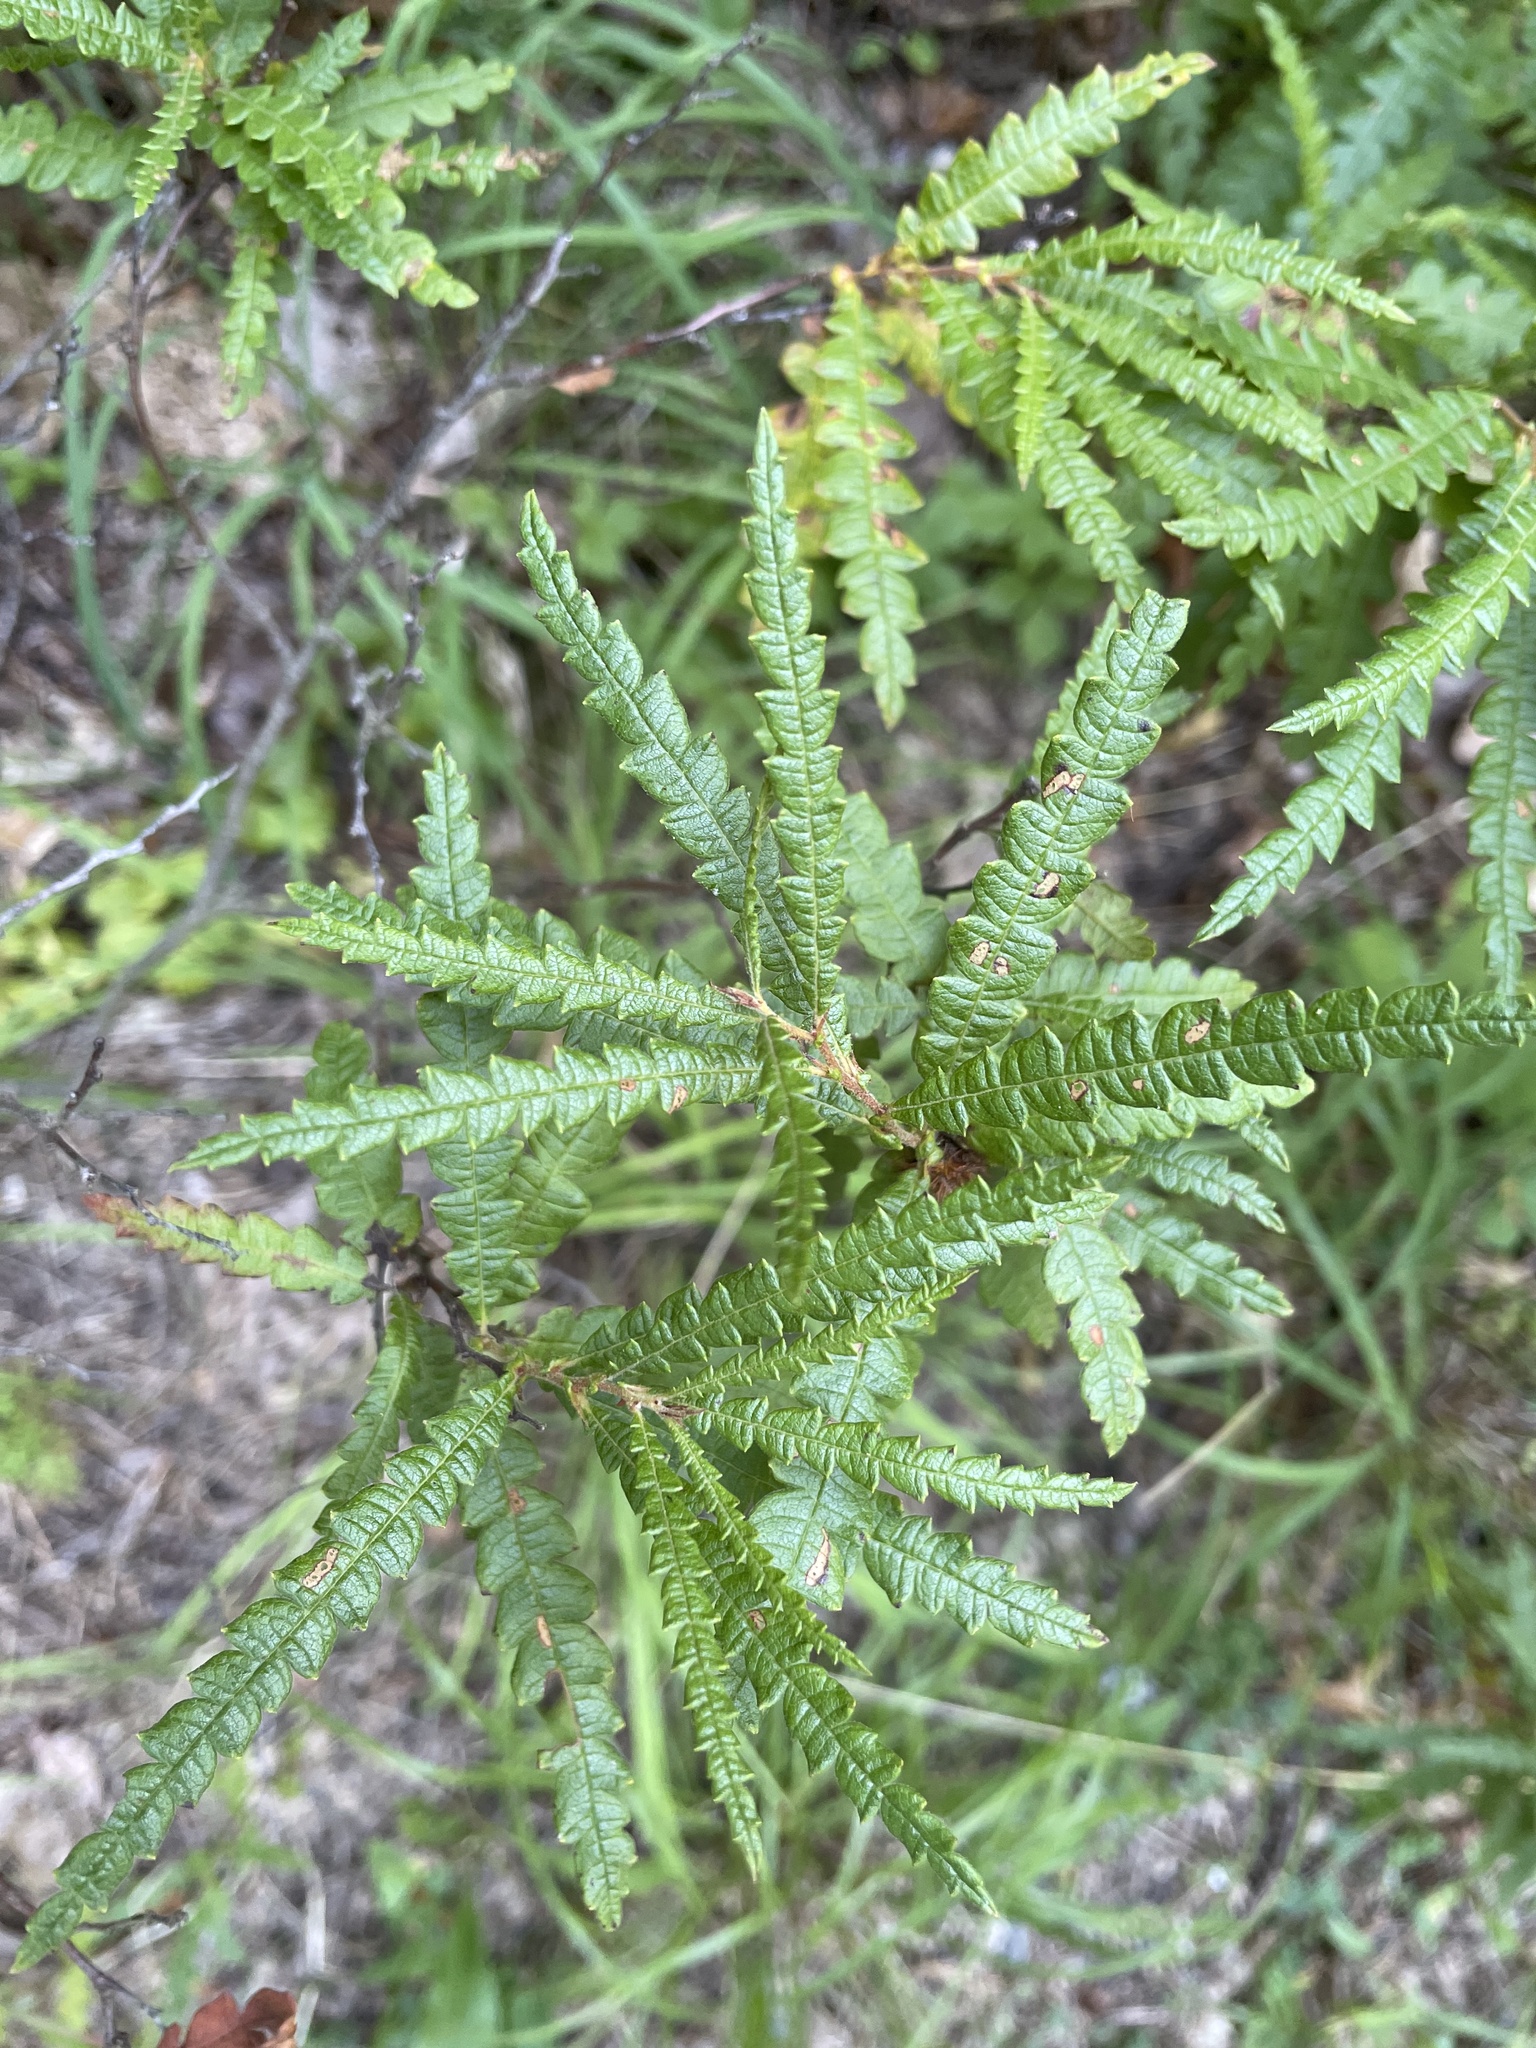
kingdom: Plantae
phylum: Tracheophyta
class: Magnoliopsida
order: Fagales
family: Myricaceae
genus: Comptonia
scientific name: Comptonia peregrina
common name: Sweet-fern
